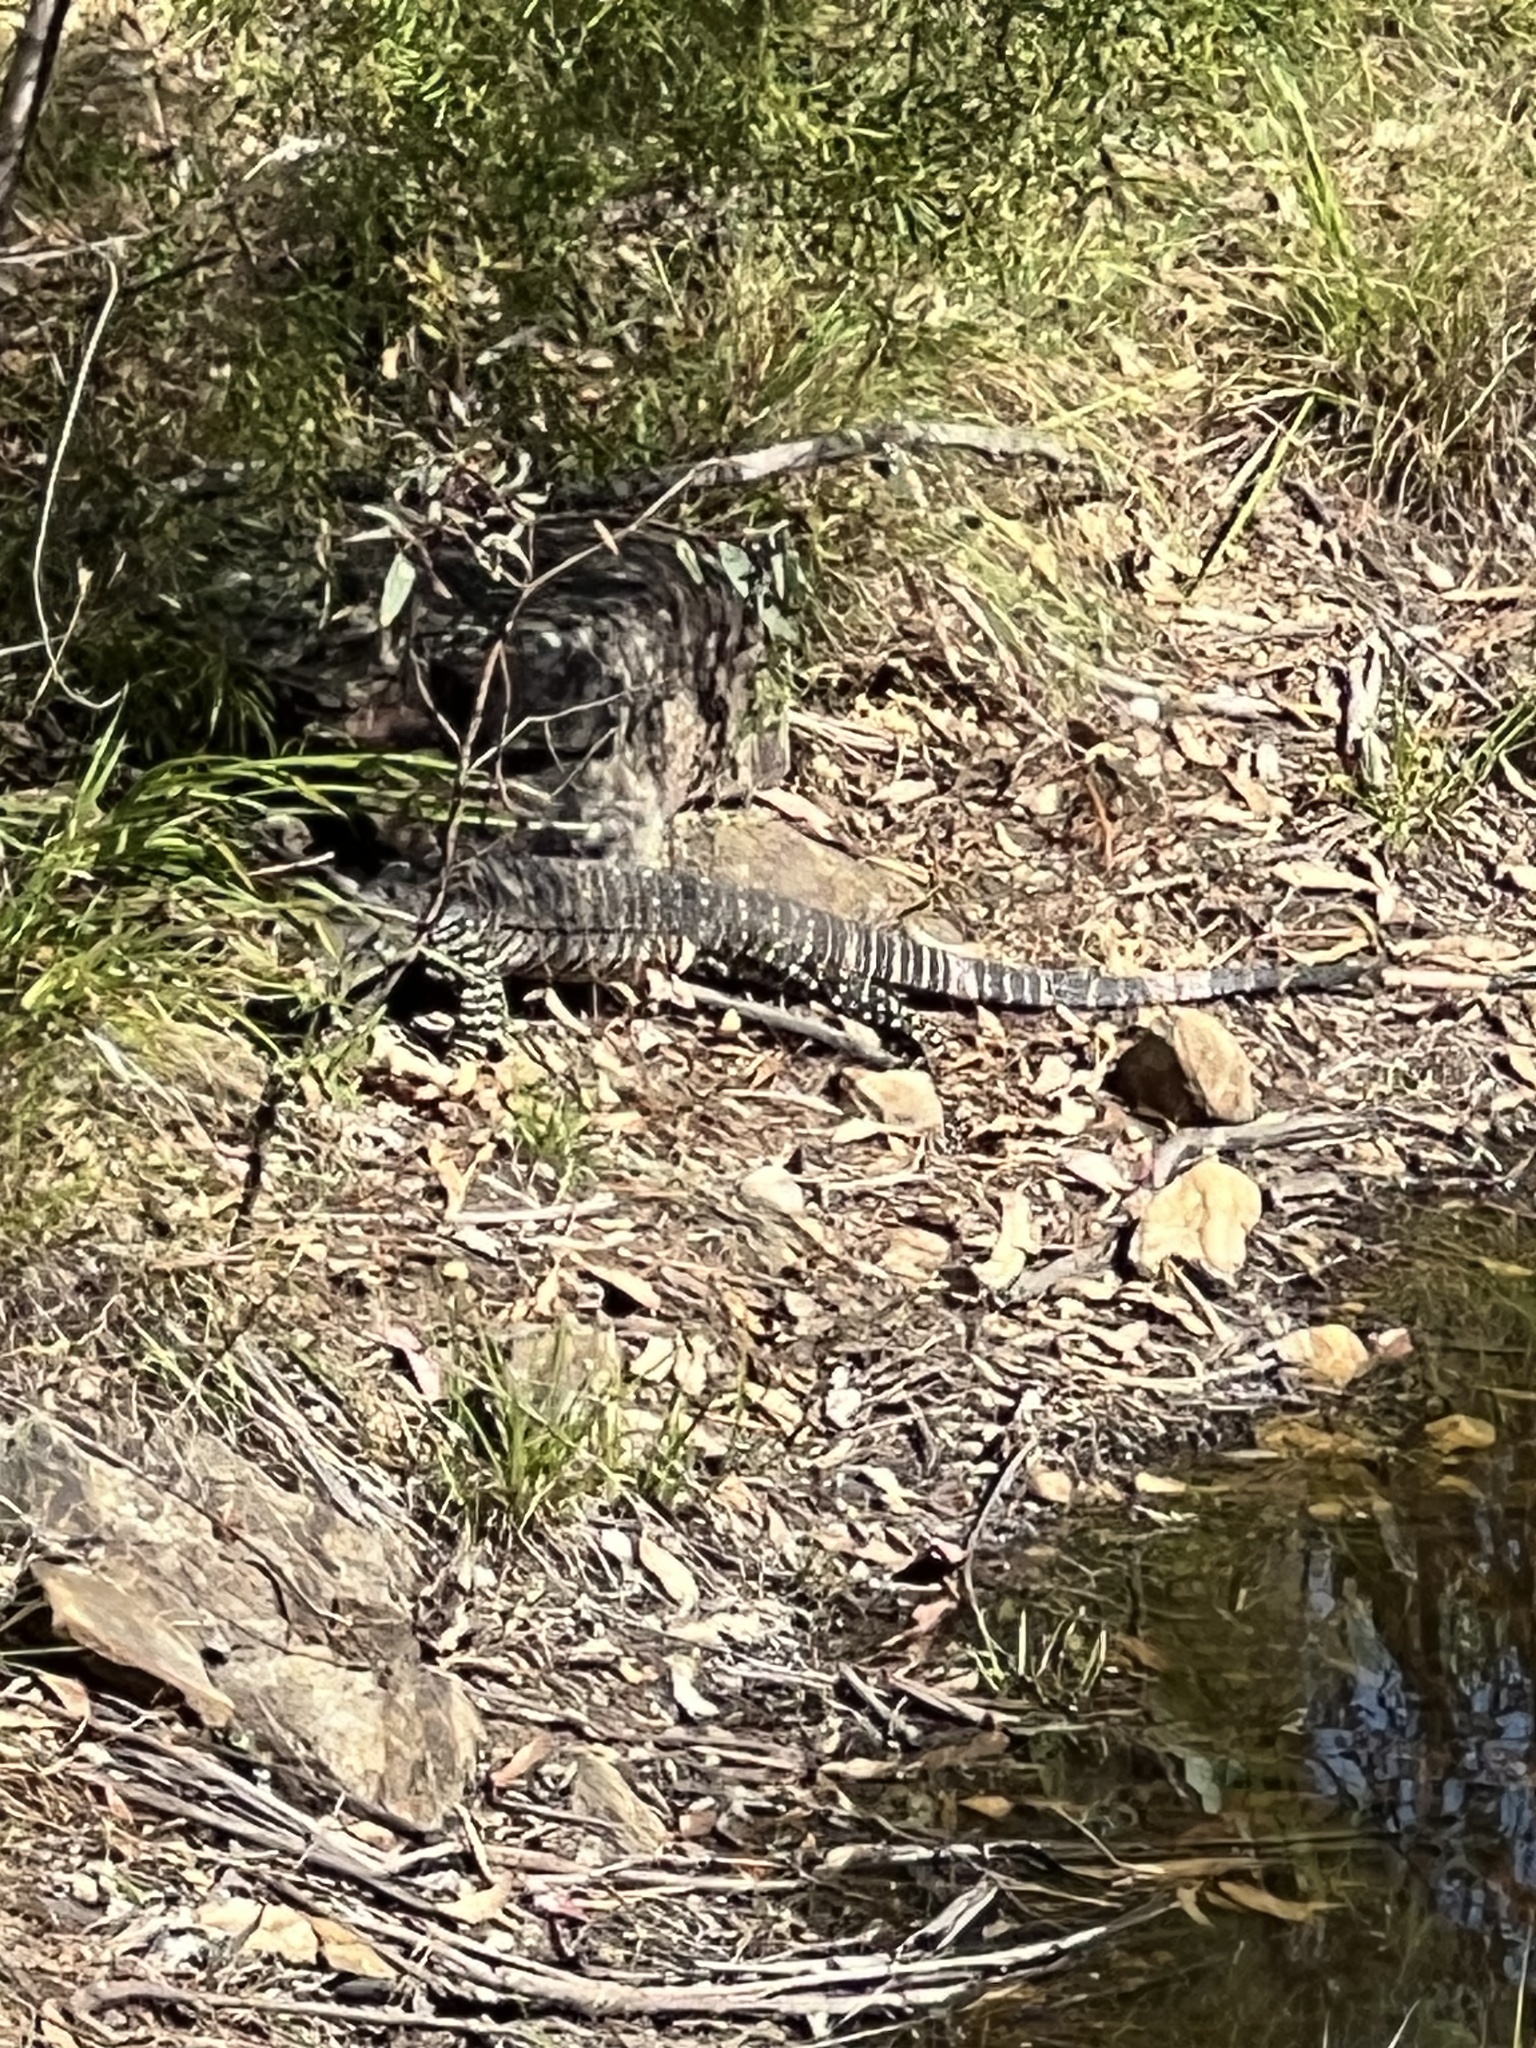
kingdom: Animalia
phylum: Chordata
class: Squamata
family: Varanidae
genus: Varanus
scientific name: Varanus varius
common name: Lace monitor
